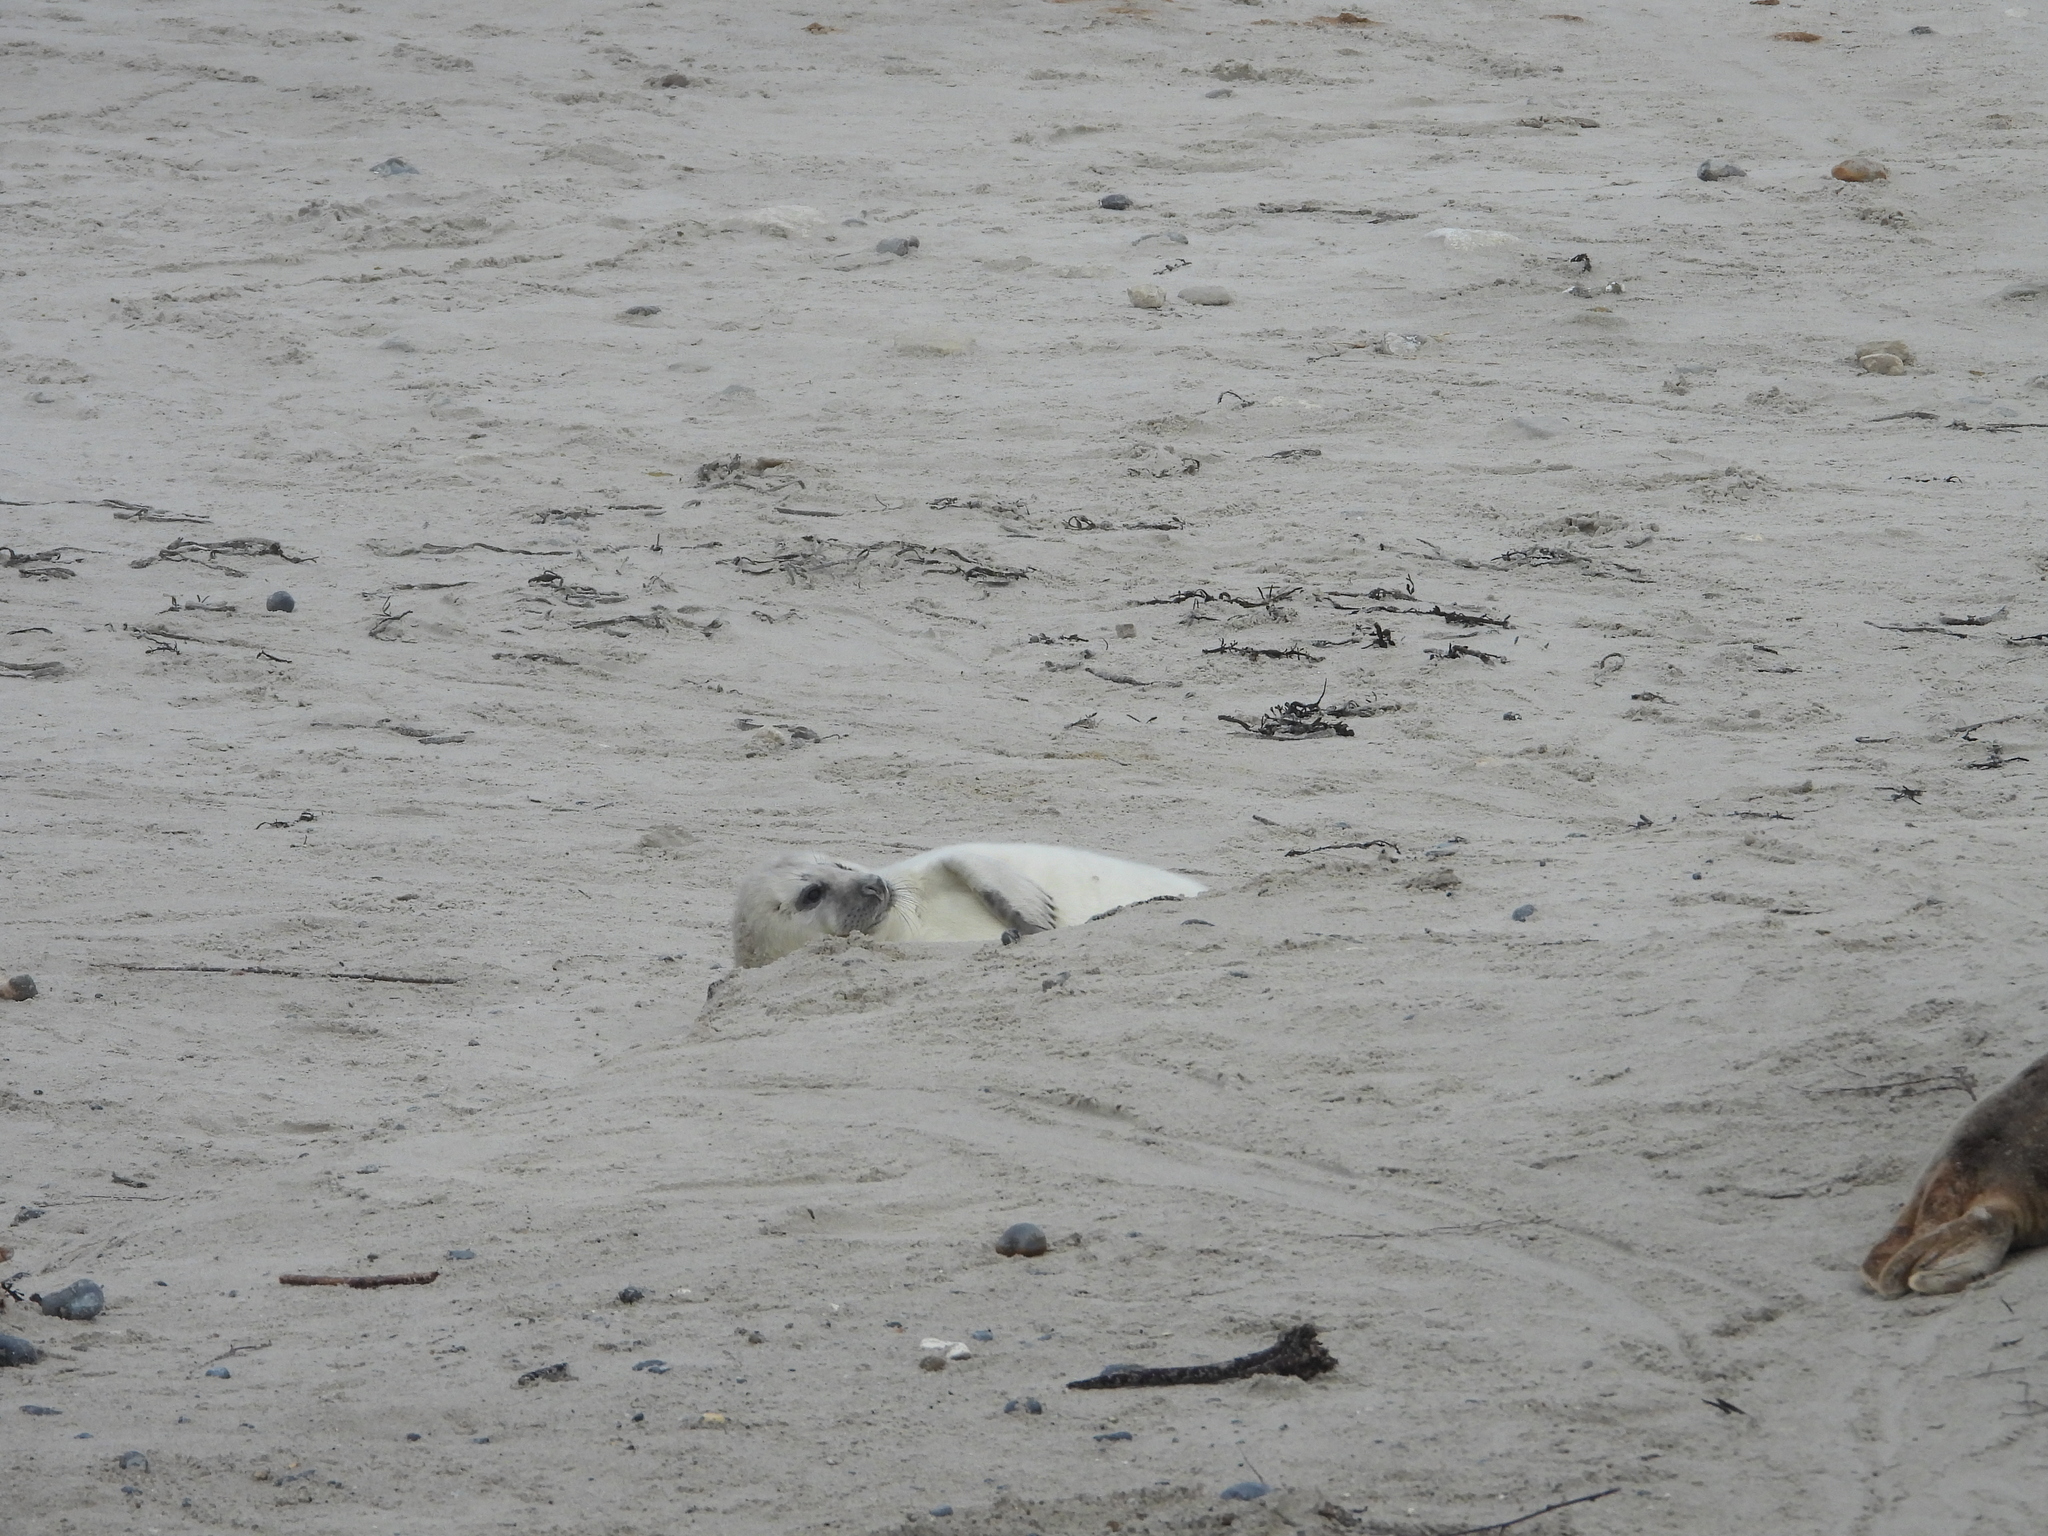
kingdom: Animalia
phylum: Chordata
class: Mammalia
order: Carnivora
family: Phocidae
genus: Halichoerus
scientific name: Halichoerus grypus
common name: Grey seal
